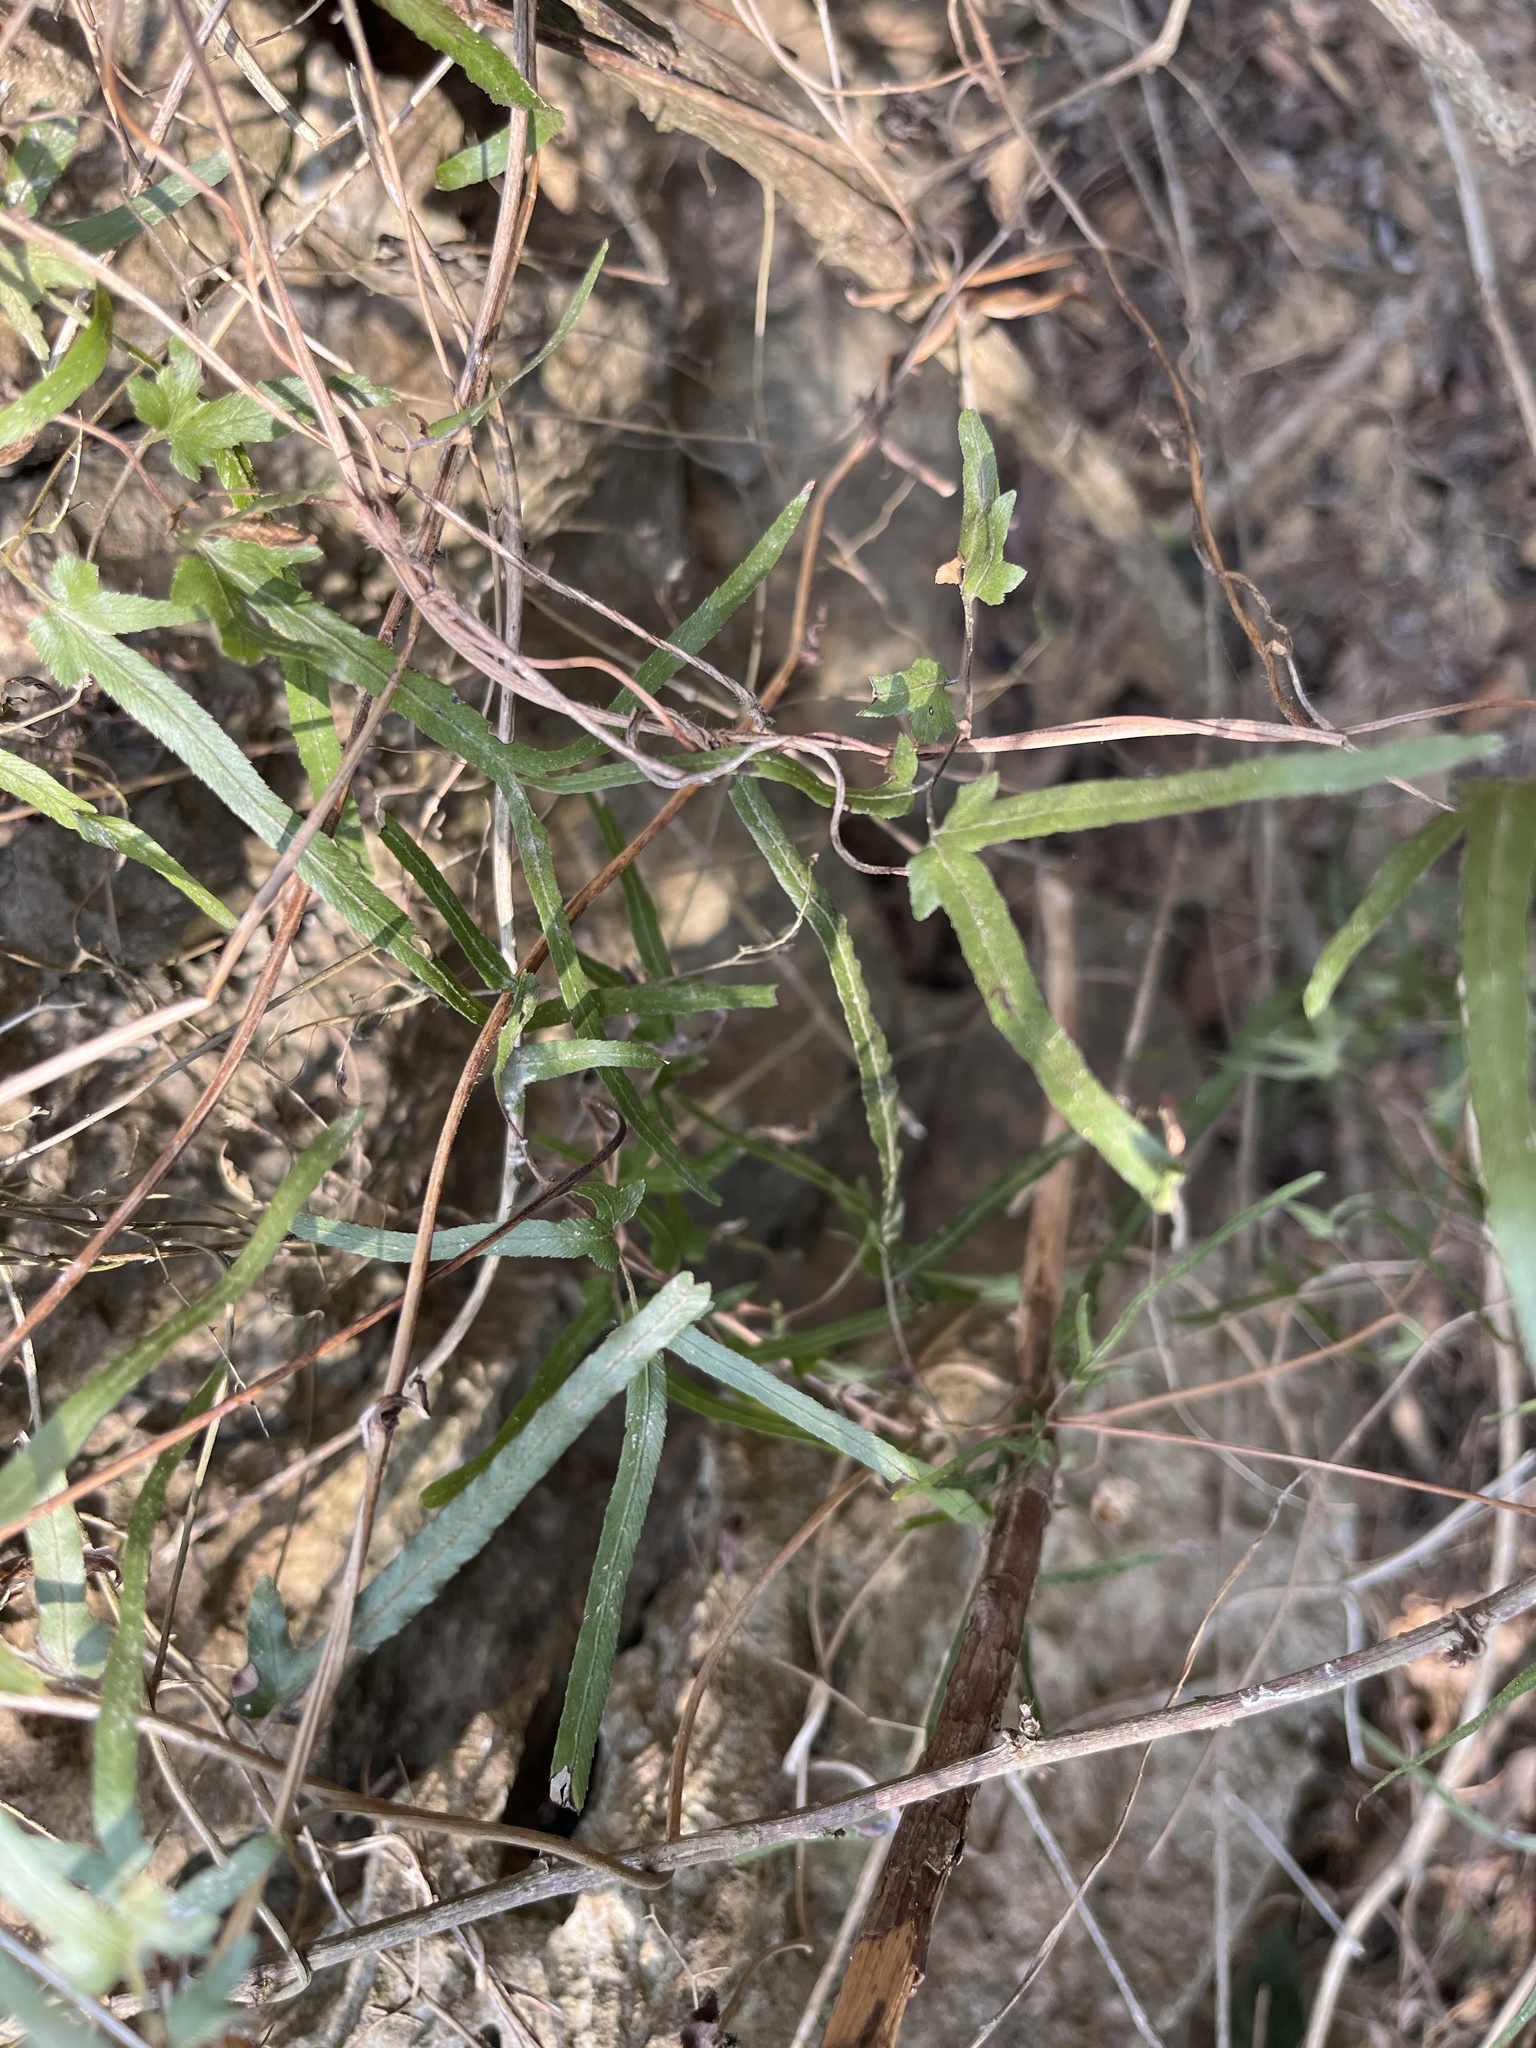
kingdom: Plantae
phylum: Tracheophyta
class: Polypodiopsida
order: Schizaeales
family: Lygodiaceae
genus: Lygodium
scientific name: Lygodium japonicum
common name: Japanese climbing fern
